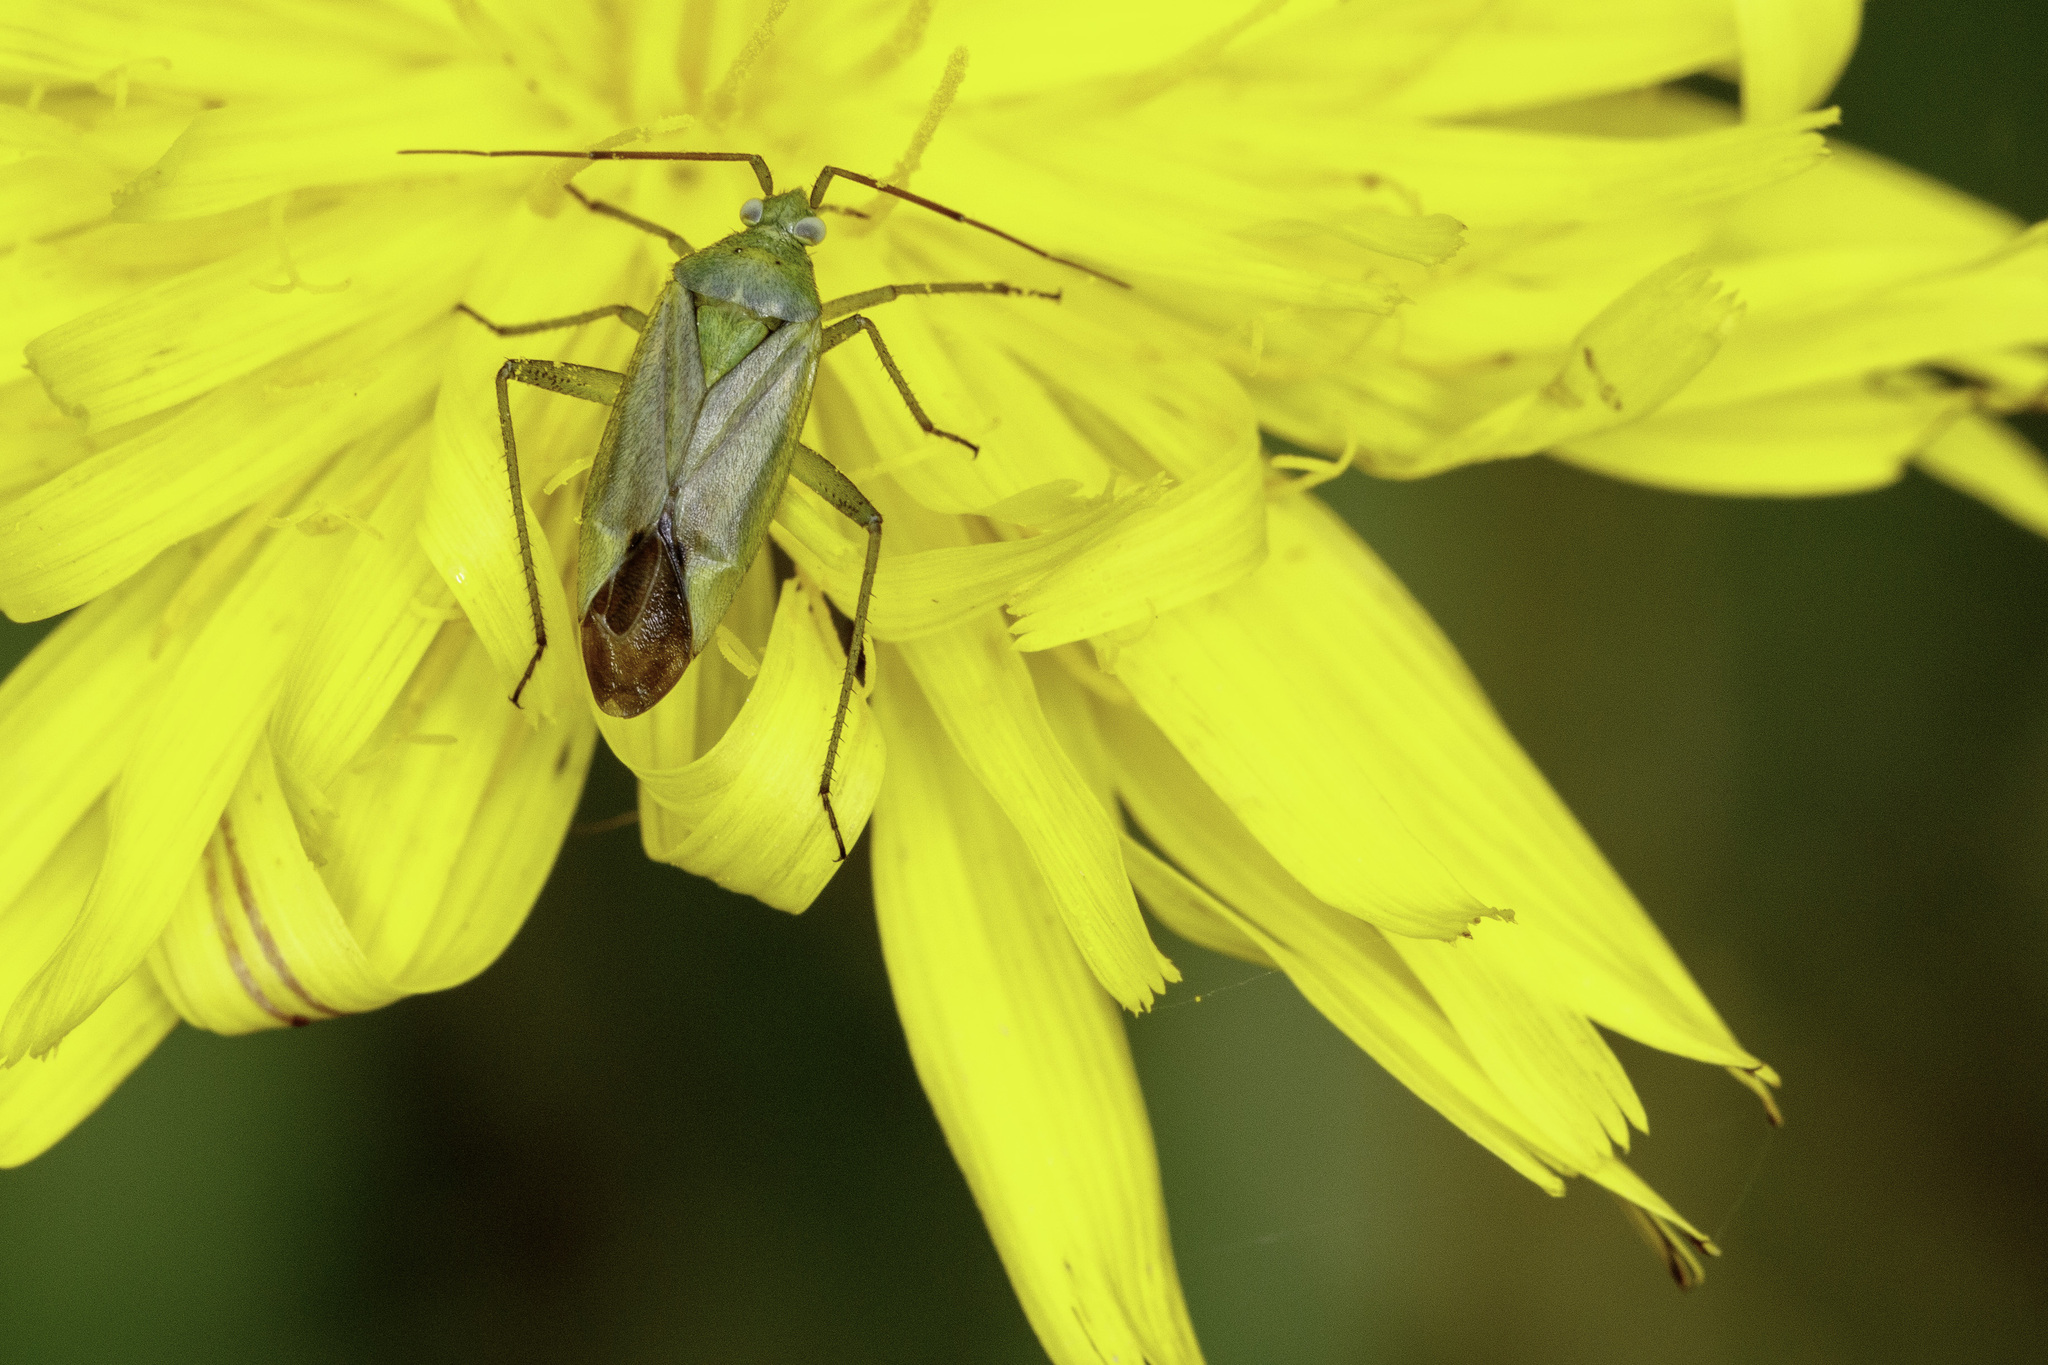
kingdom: Animalia
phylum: Arthropoda
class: Insecta
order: Hemiptera
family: Miridae
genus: Closterotomus
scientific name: Closterotomus norvegicus
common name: Plant bug
